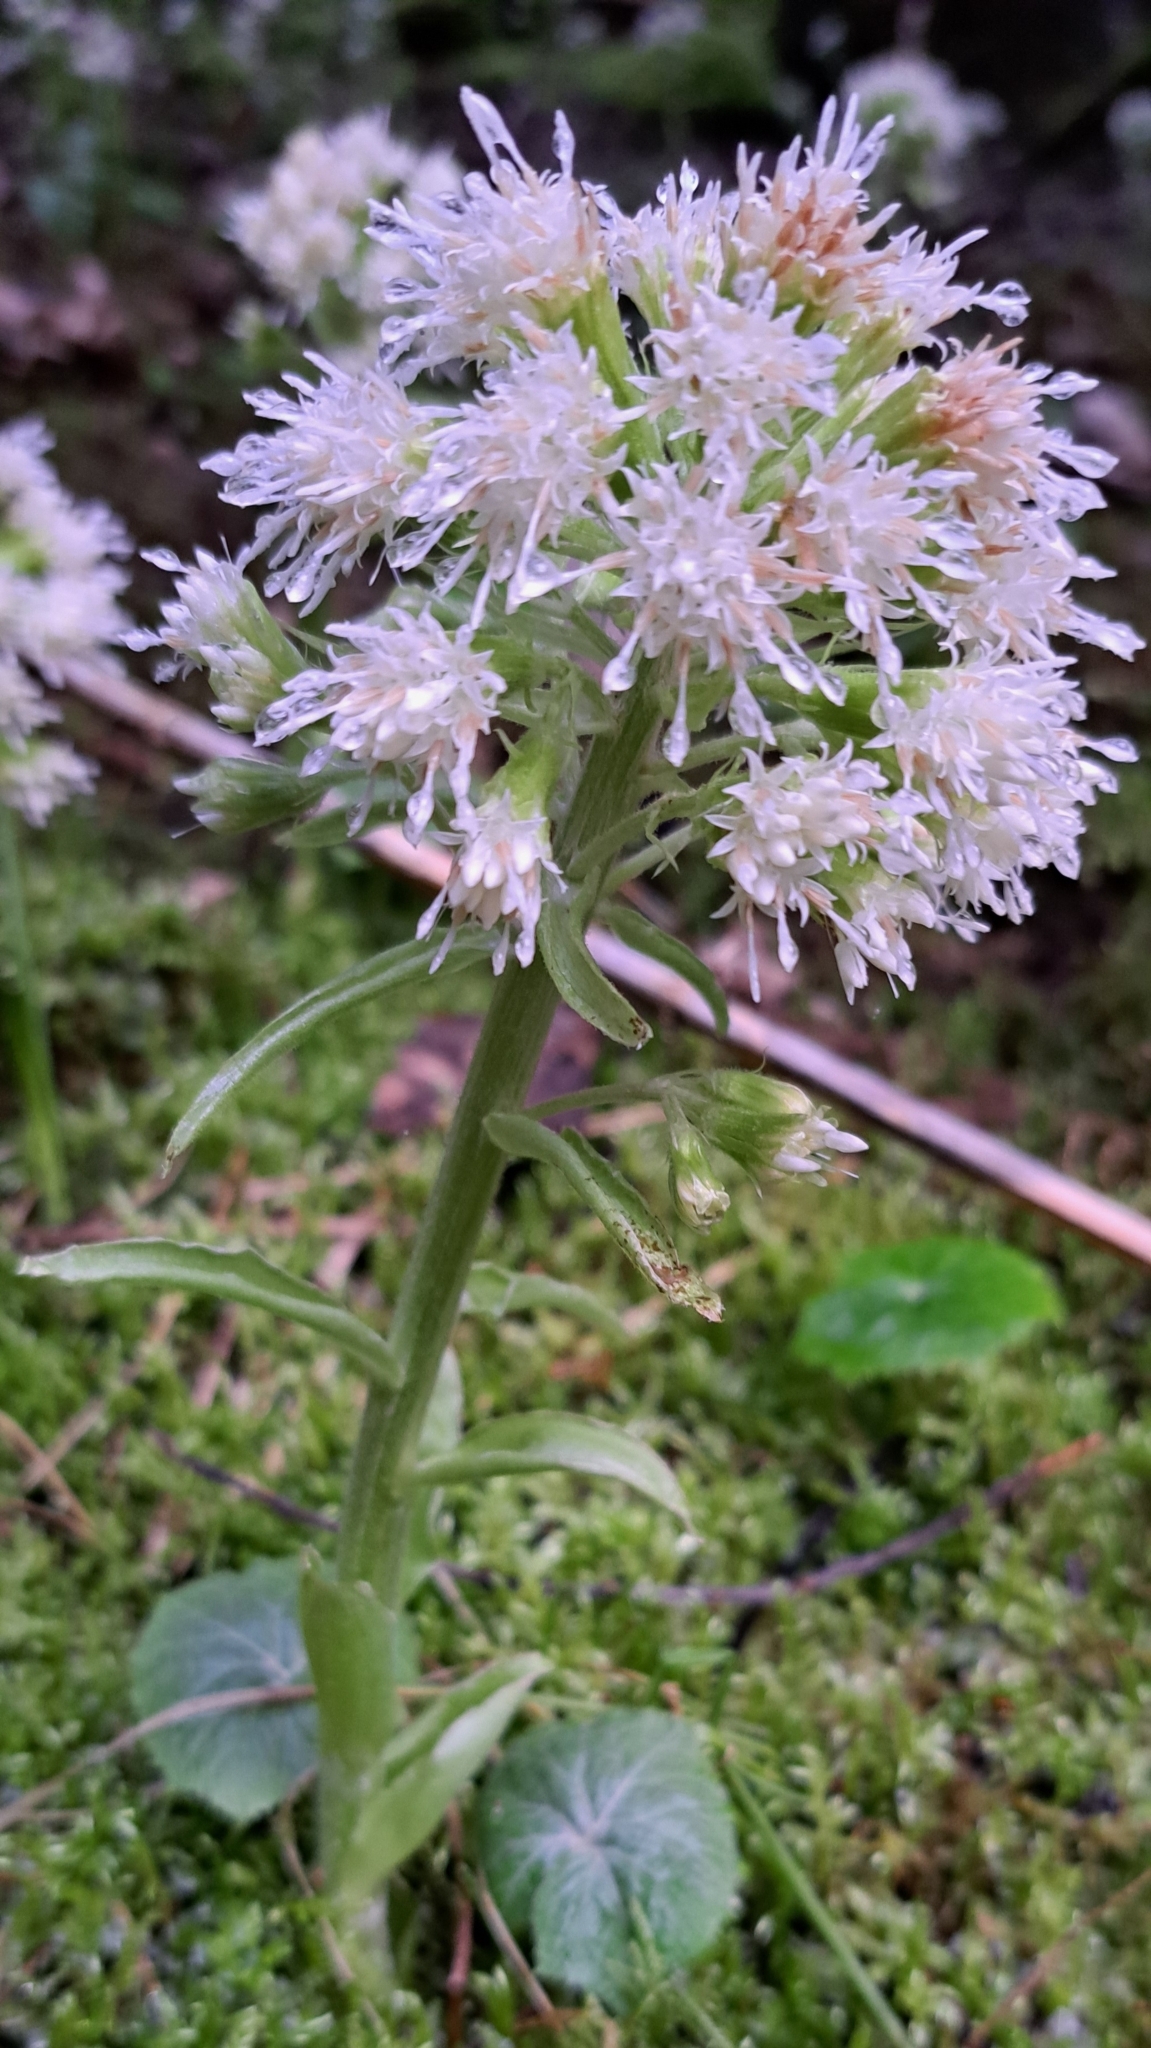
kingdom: Plantae
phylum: Tracheophyta
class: Magnoliopsida
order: Asterales
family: Asteraceae
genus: Petasites
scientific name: Petasites albus
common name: White butterbur
